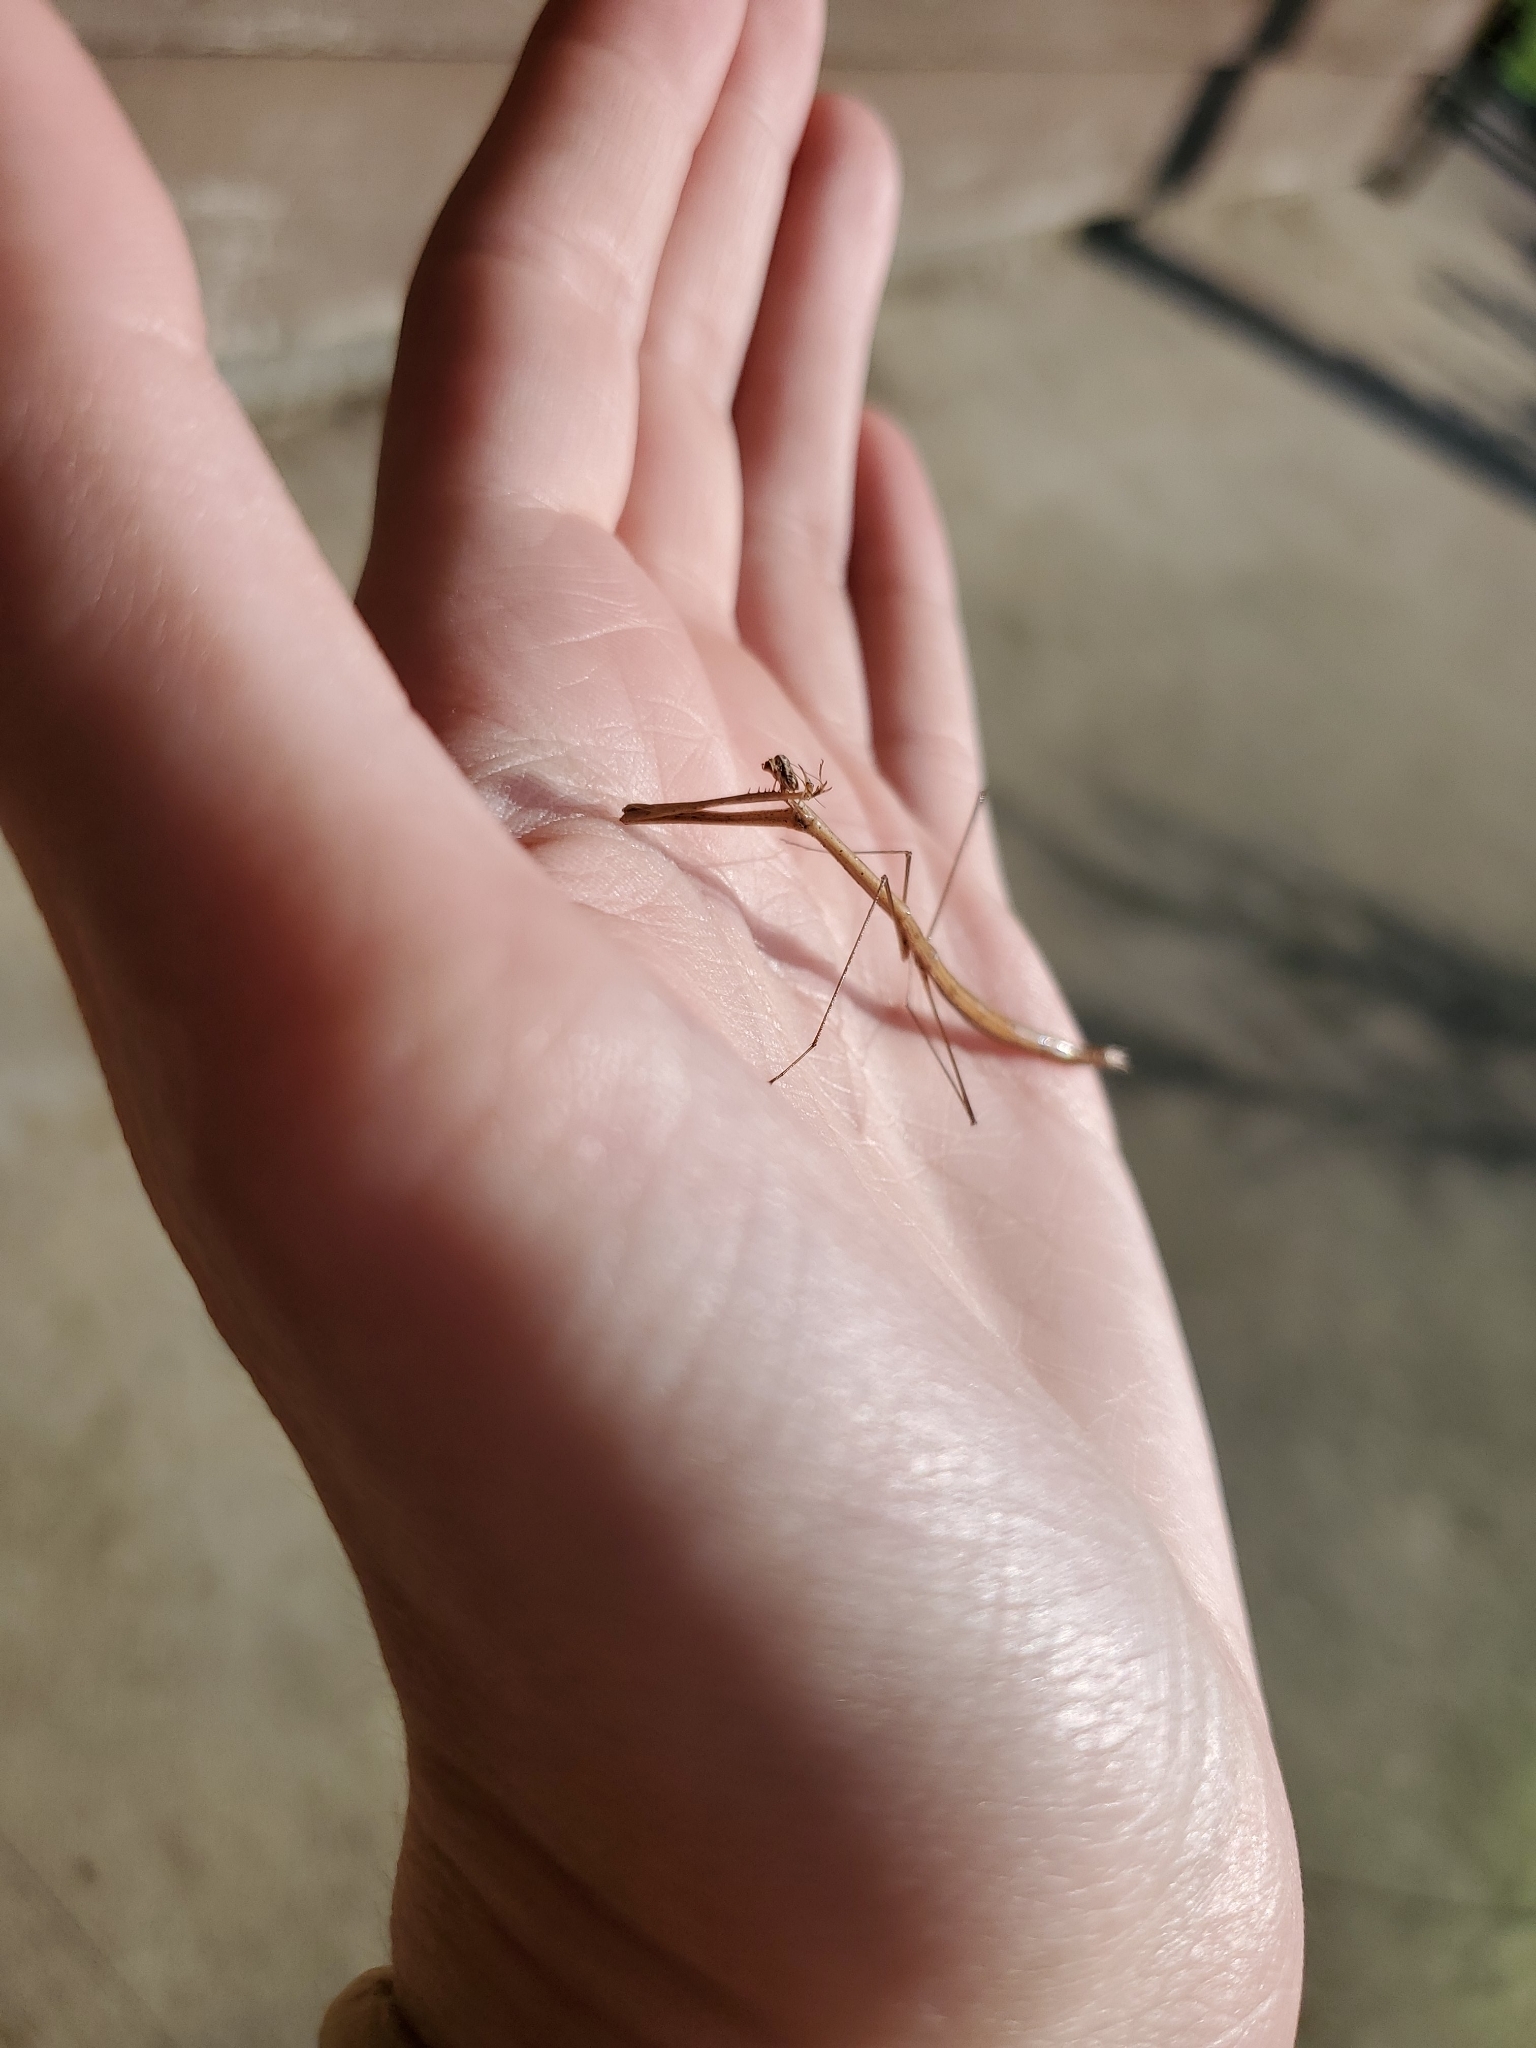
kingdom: Animalia
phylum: Arthropoda
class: Insecta
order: Mantodea
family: Thespidae
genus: Thesprotia
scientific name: Thesprotia graminis
